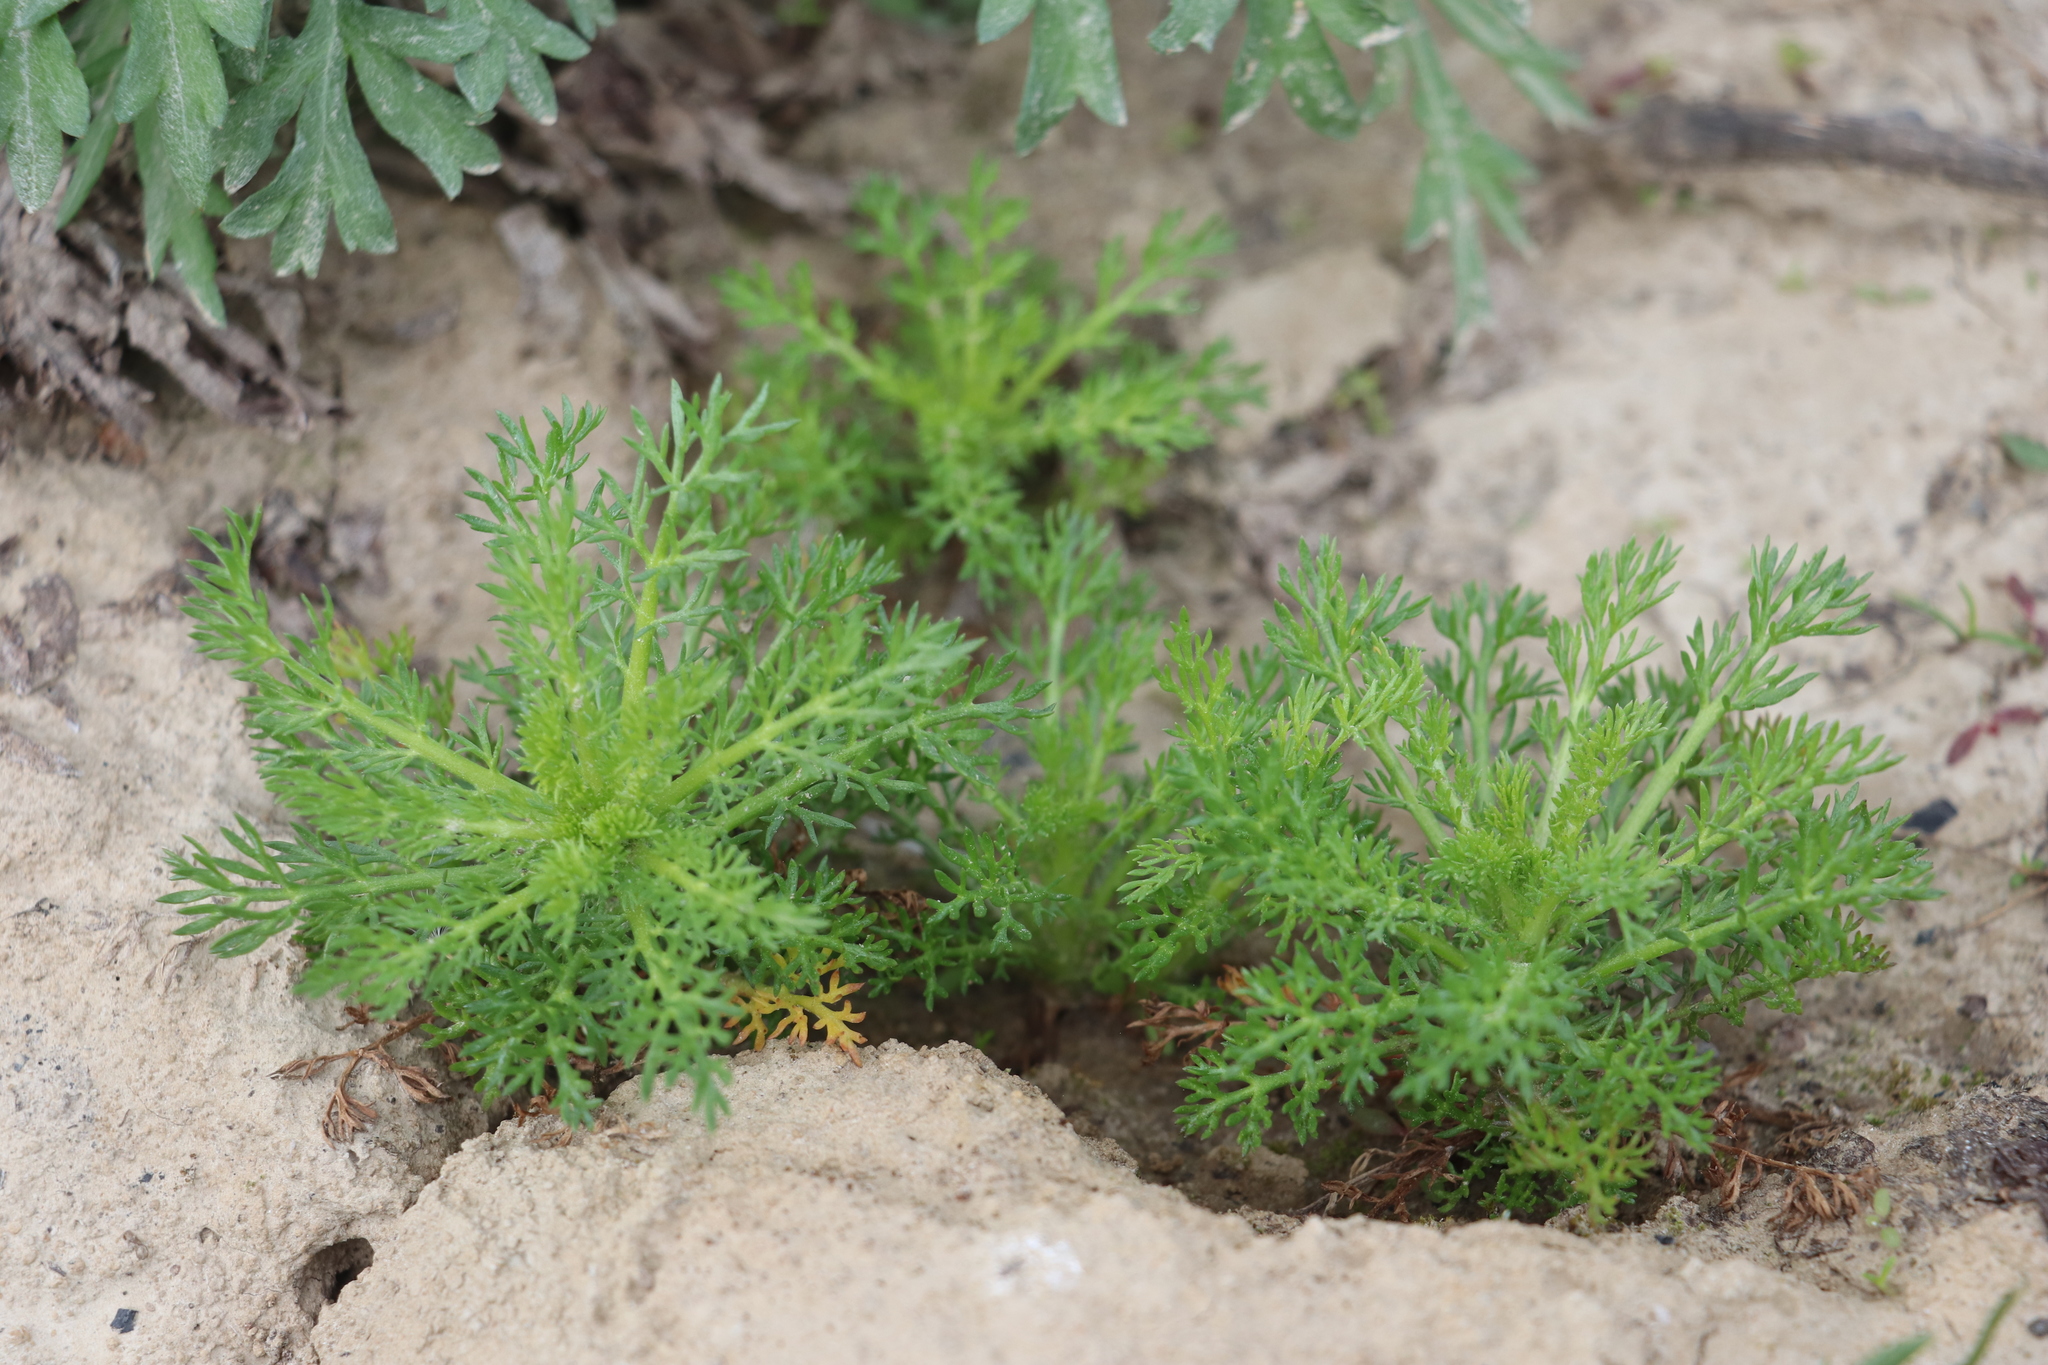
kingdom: Plantae
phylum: Tracheophyta
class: Magnoliopsida
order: Asterales
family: Asteraceae
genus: Matricaria
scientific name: Matricaria discoidea
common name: Disc mayweed
